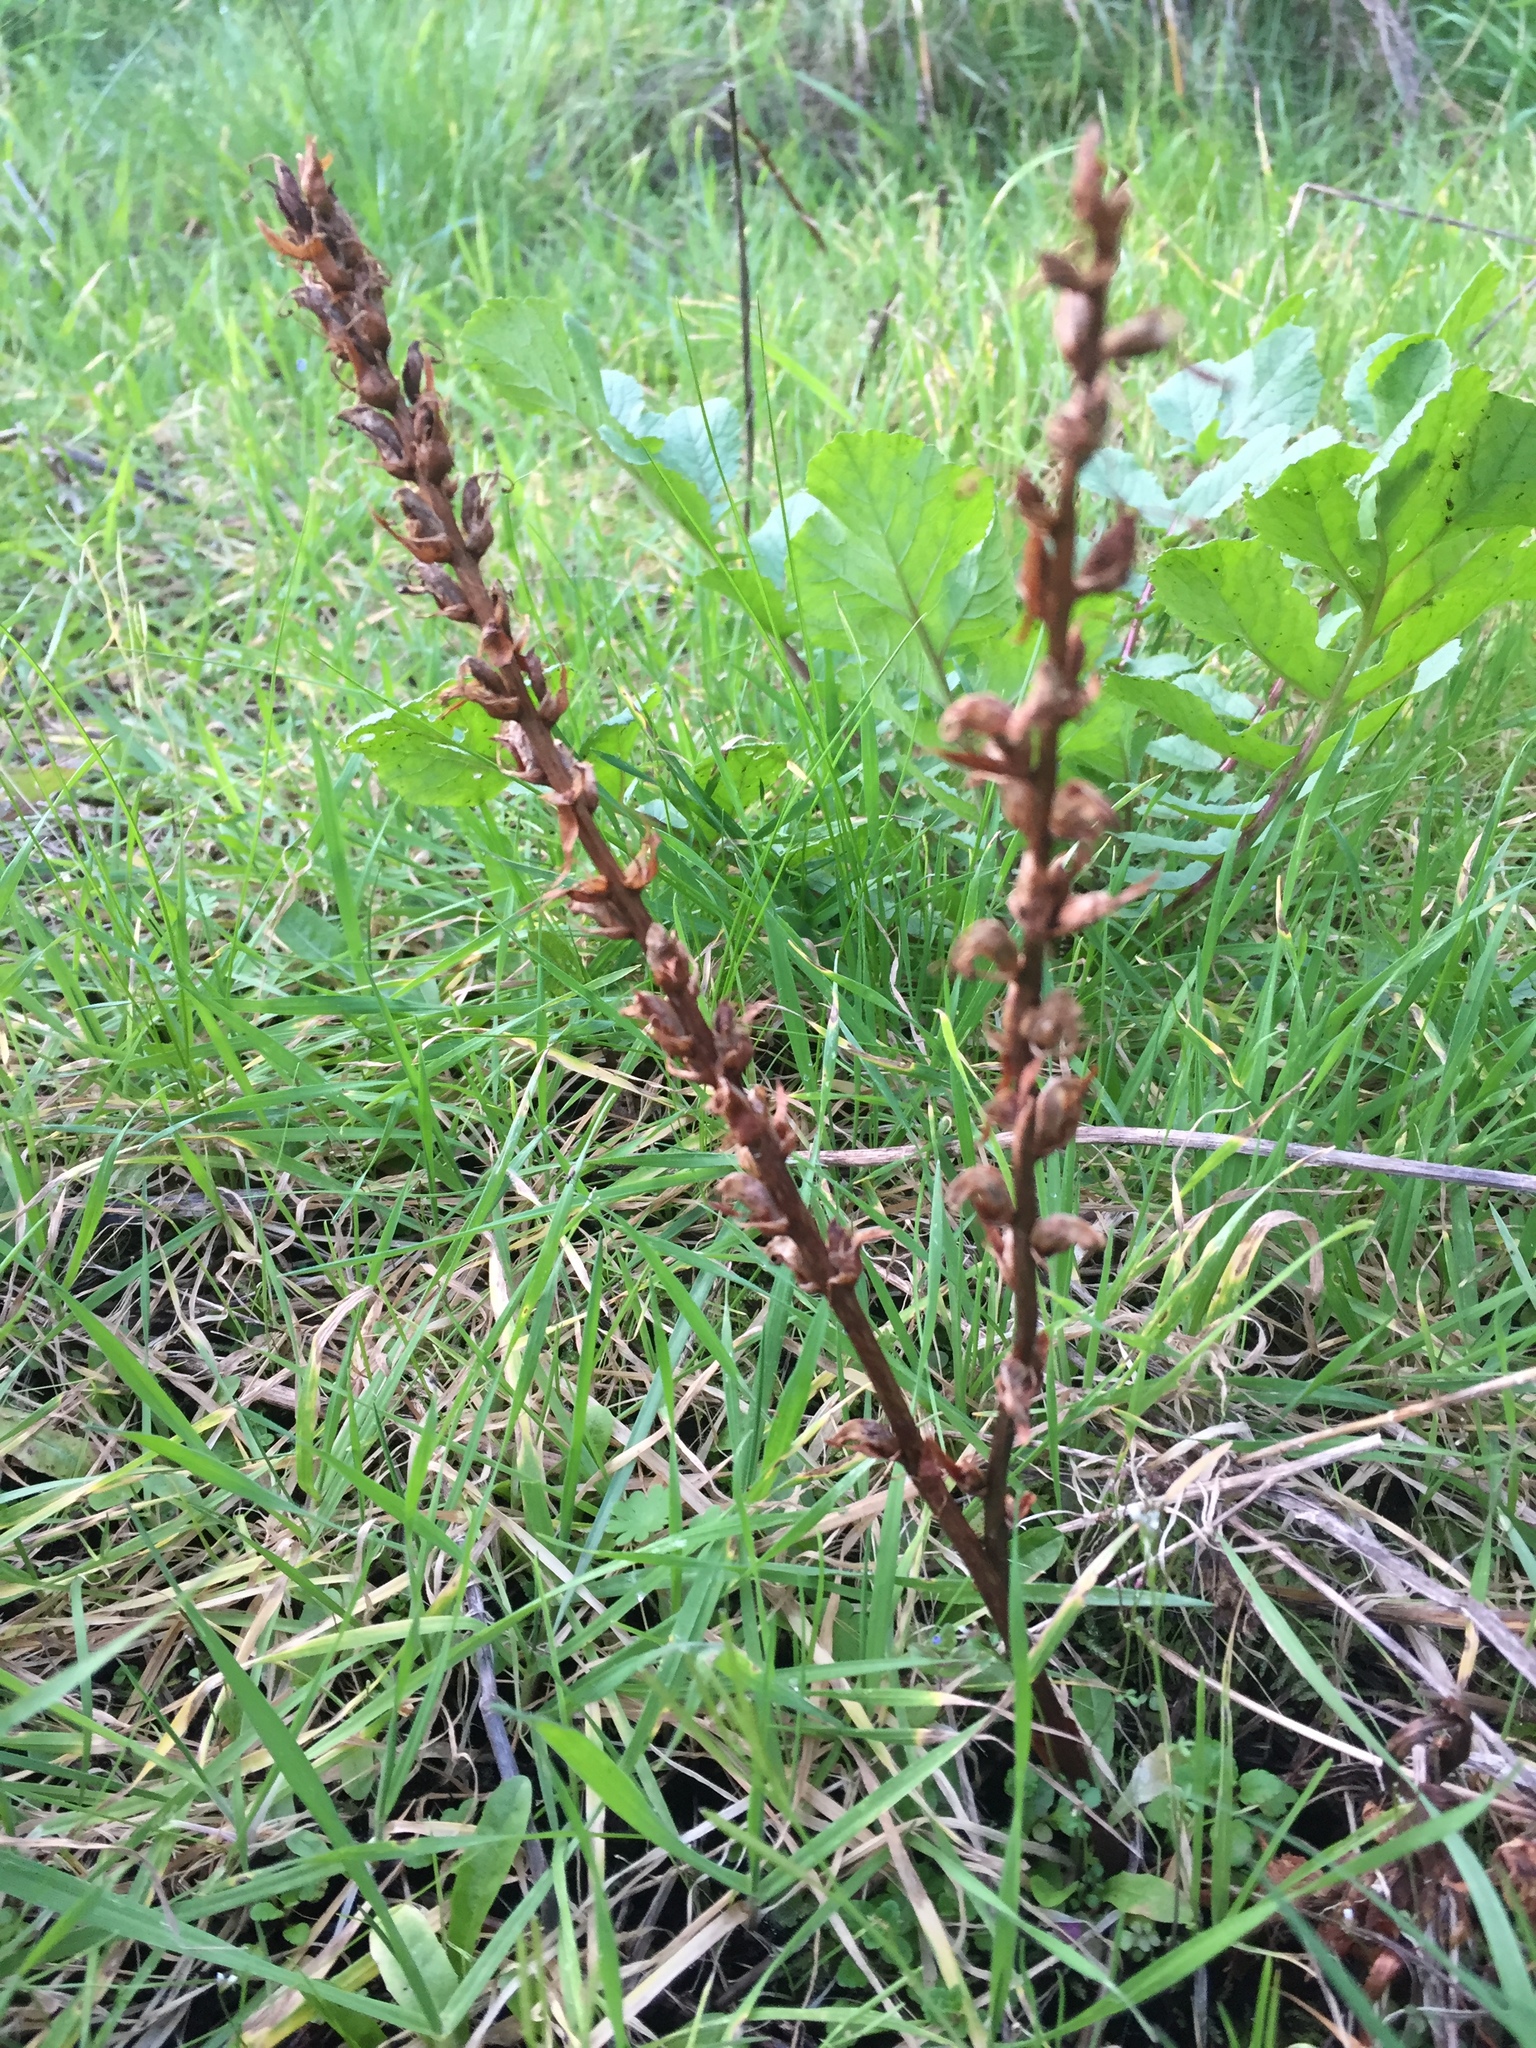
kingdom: Plantae
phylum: Tracheophyta
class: Magnoliopsida
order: Lamiales
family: Orobanchaceae
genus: Orobanche
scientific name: Orobanche minor
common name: Common broomrape
